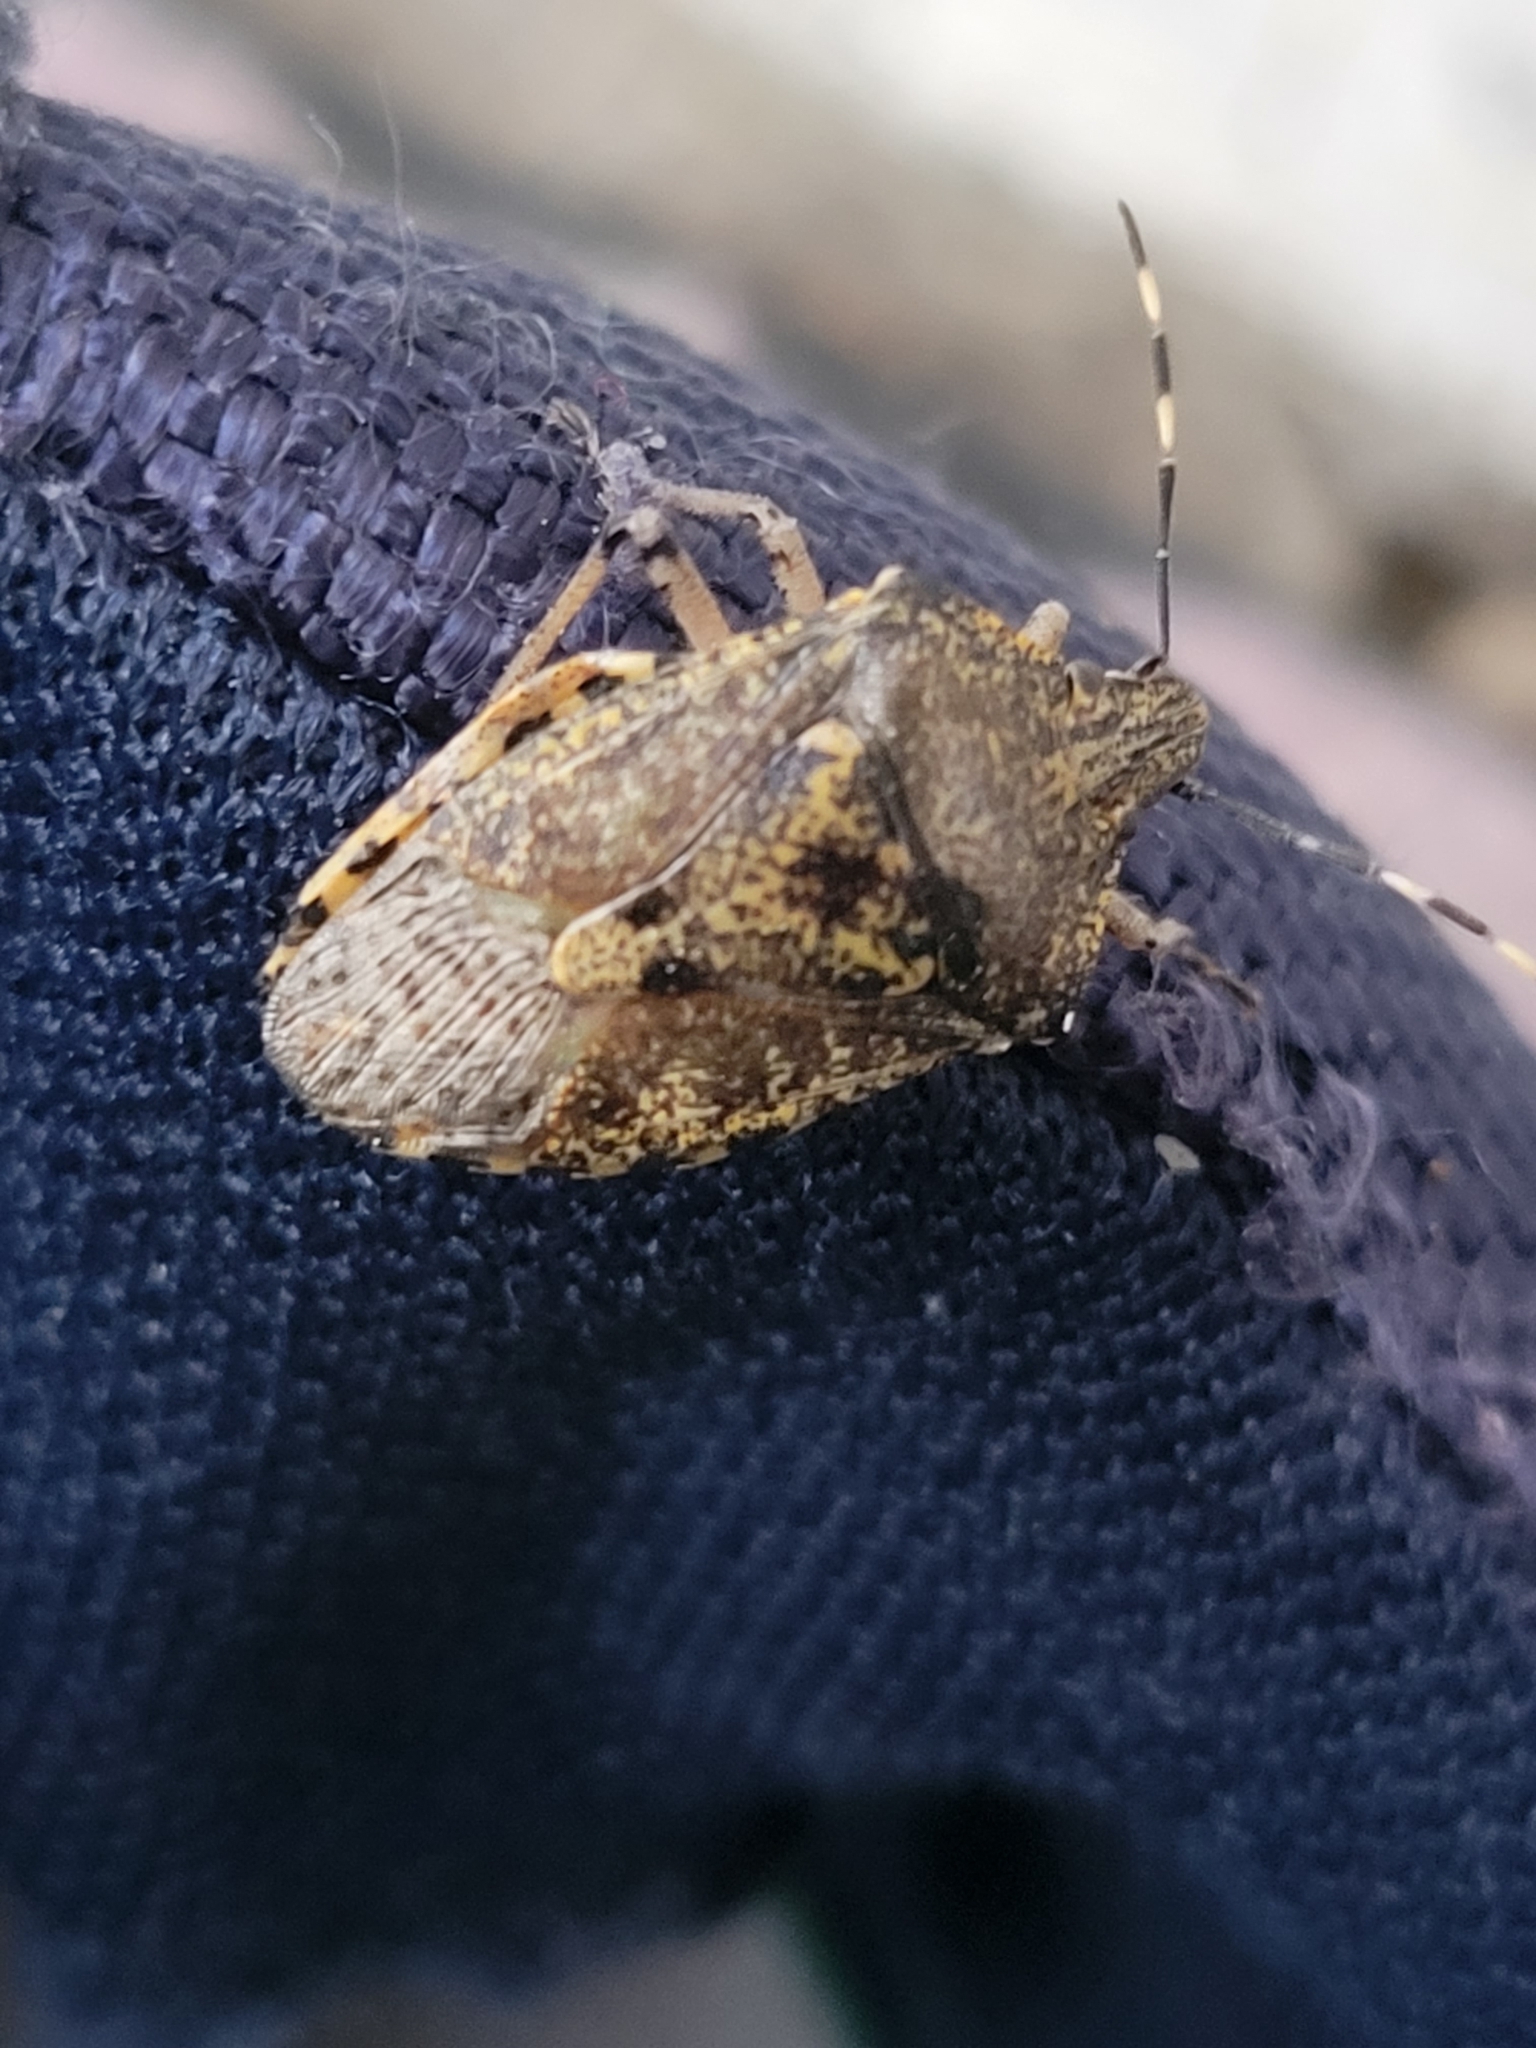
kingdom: Animalia
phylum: Arthropoda
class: Insecta
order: Hemiptera
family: Pentatomidae
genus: Rhaphigaster
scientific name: Rhaphigaster nebulosa
